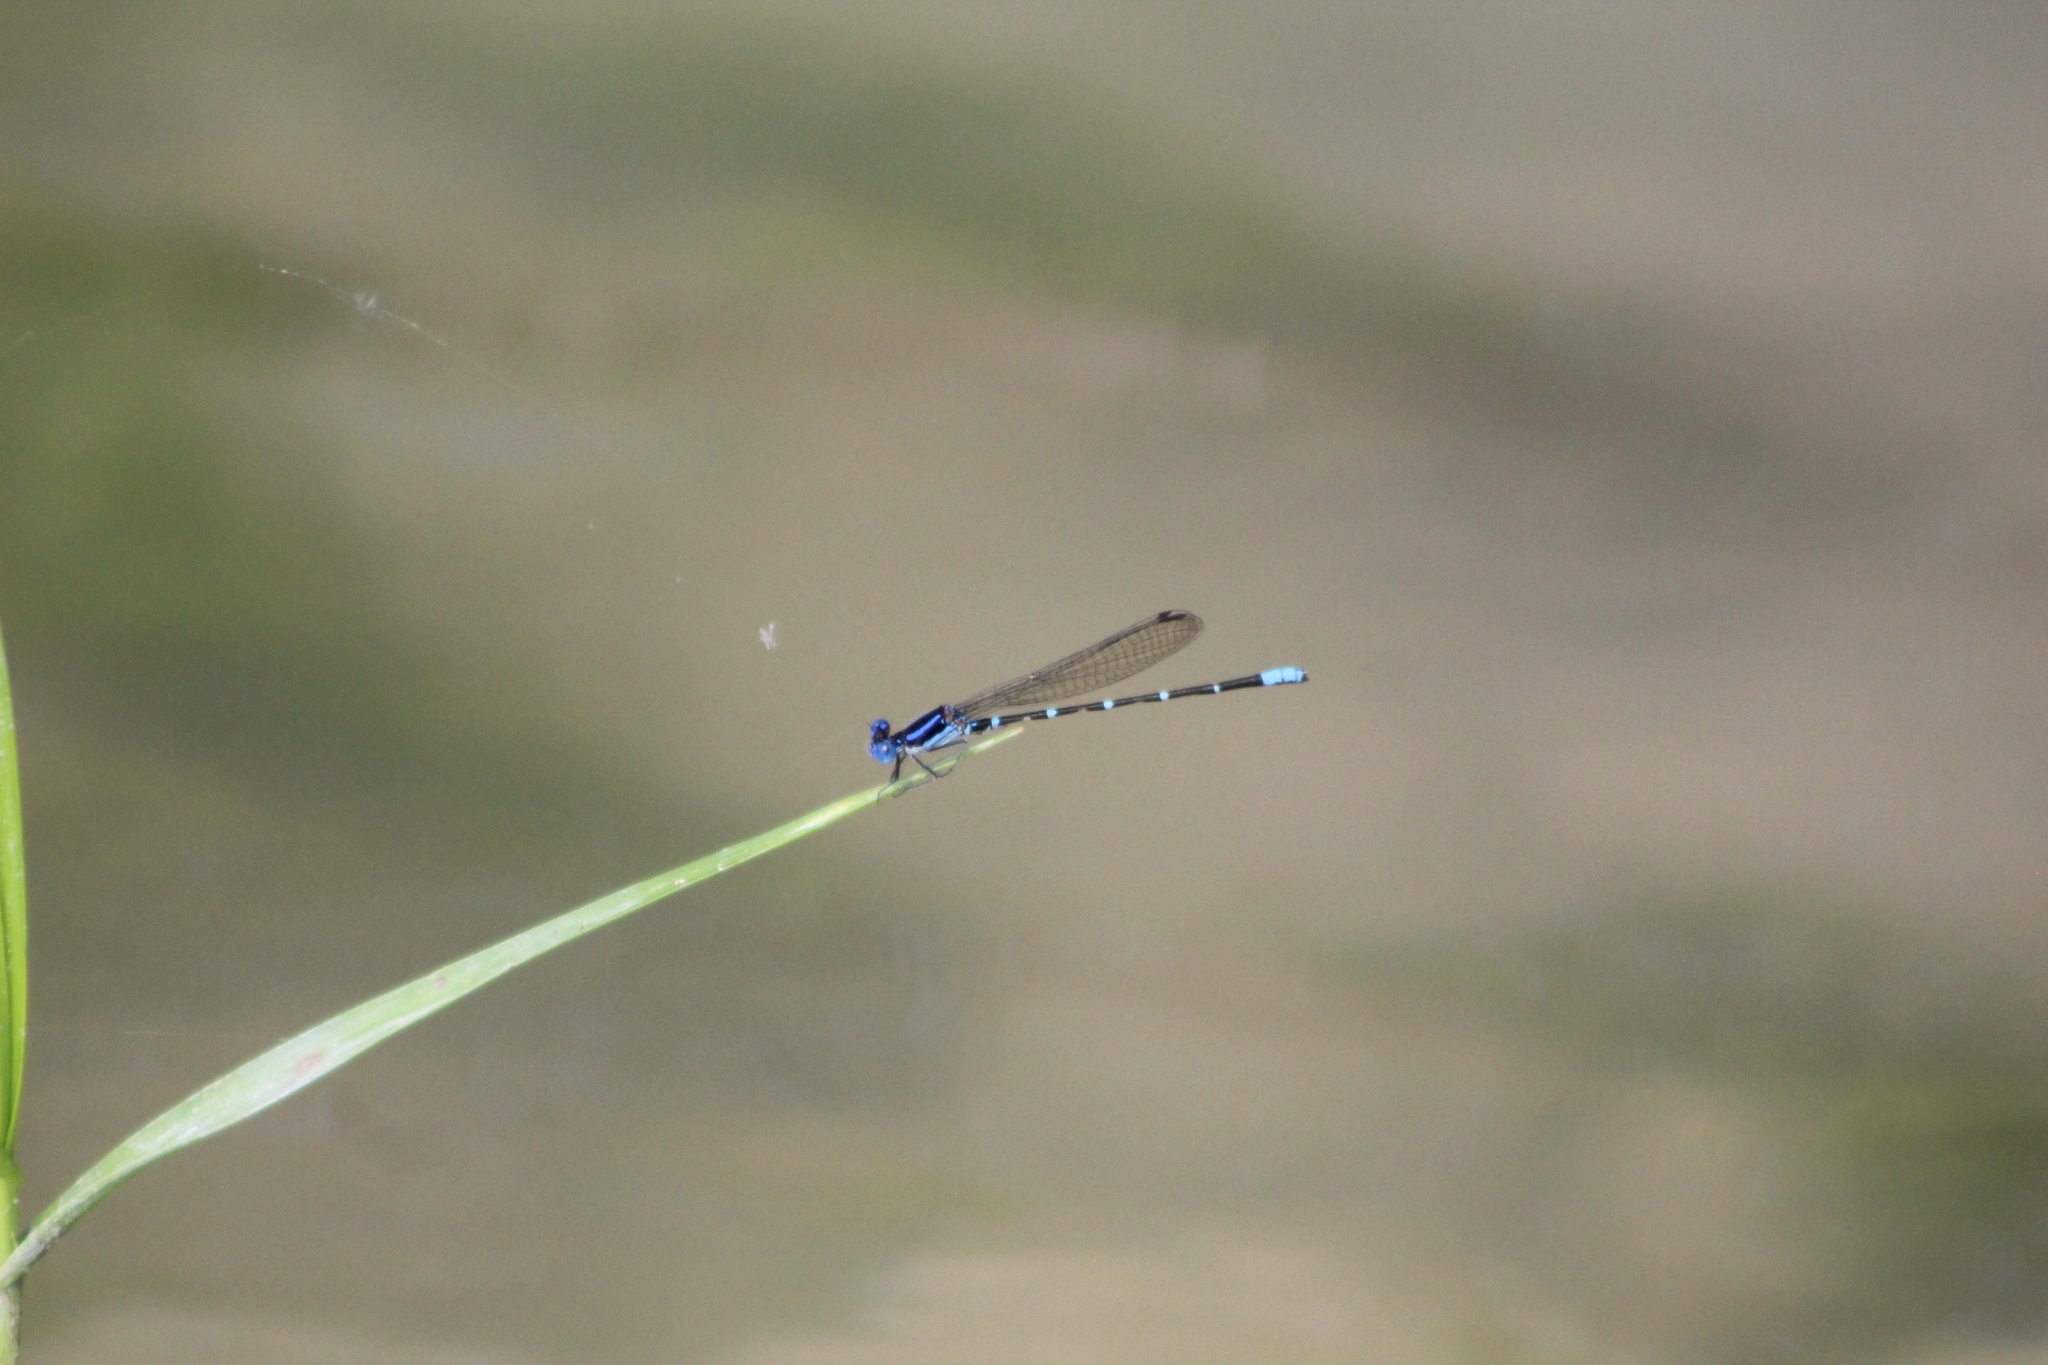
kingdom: Animalia
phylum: Arthropoda
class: Insecta
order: Odonata
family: Coenagrionidae
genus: Argia
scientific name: Argia sedula
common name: Blue-ringed dancer
